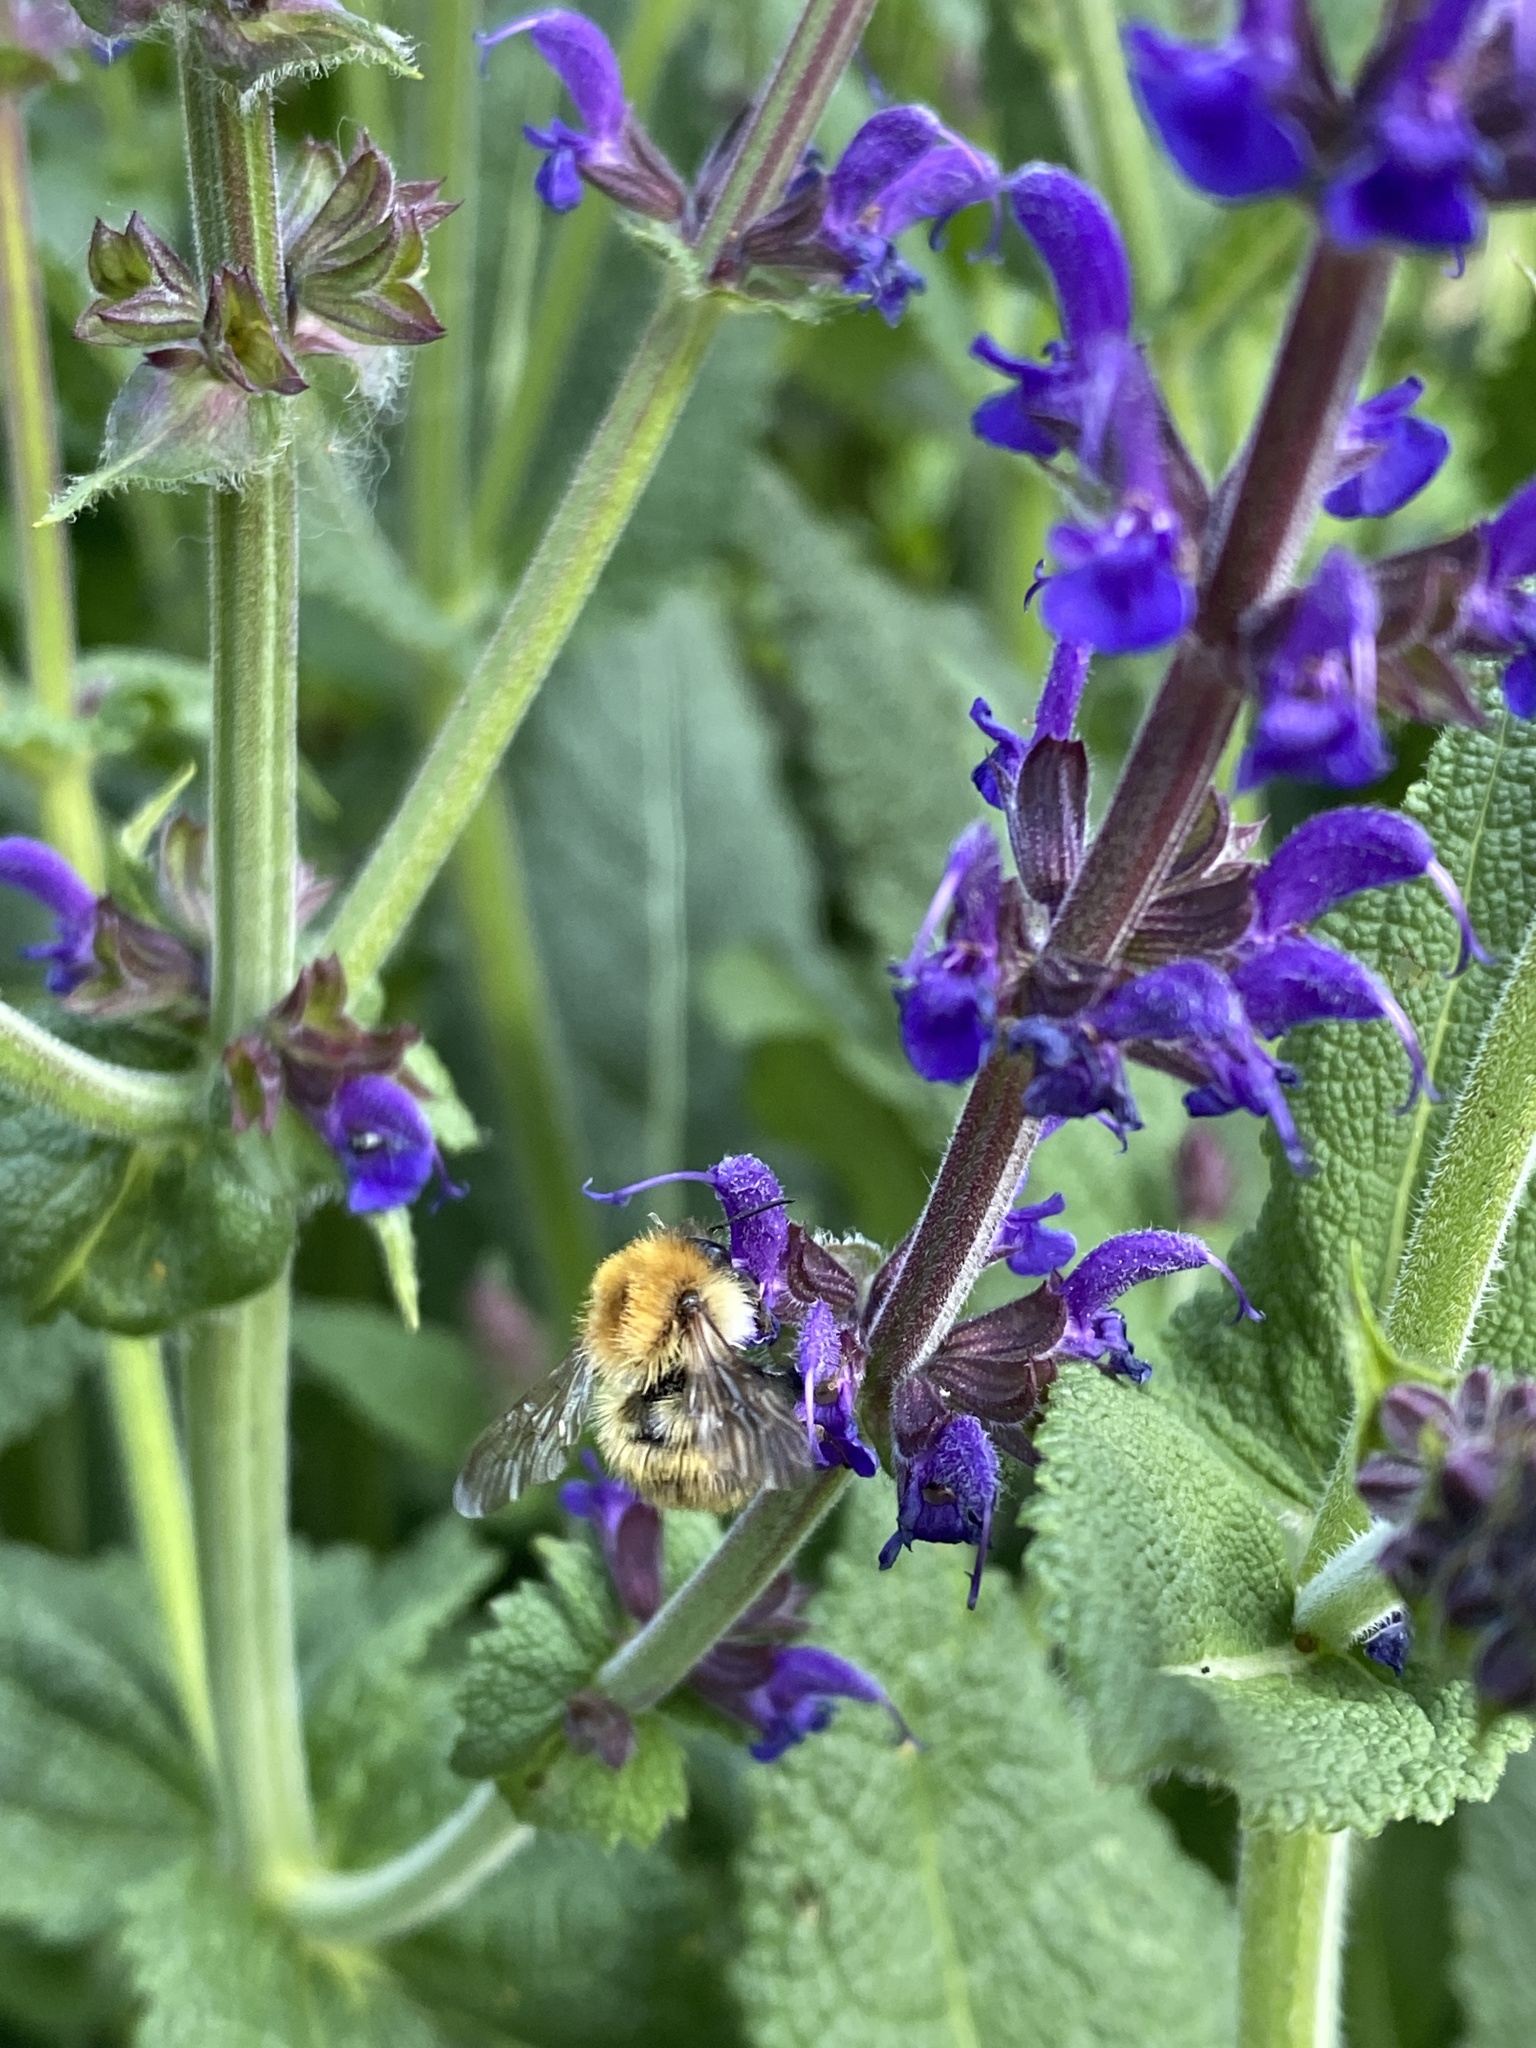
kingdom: Animalia
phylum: Arthropoda
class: Insecta
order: Hymenoptera
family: Apidae
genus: Bombus
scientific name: Bombus pascuorum
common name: Common carder bee
